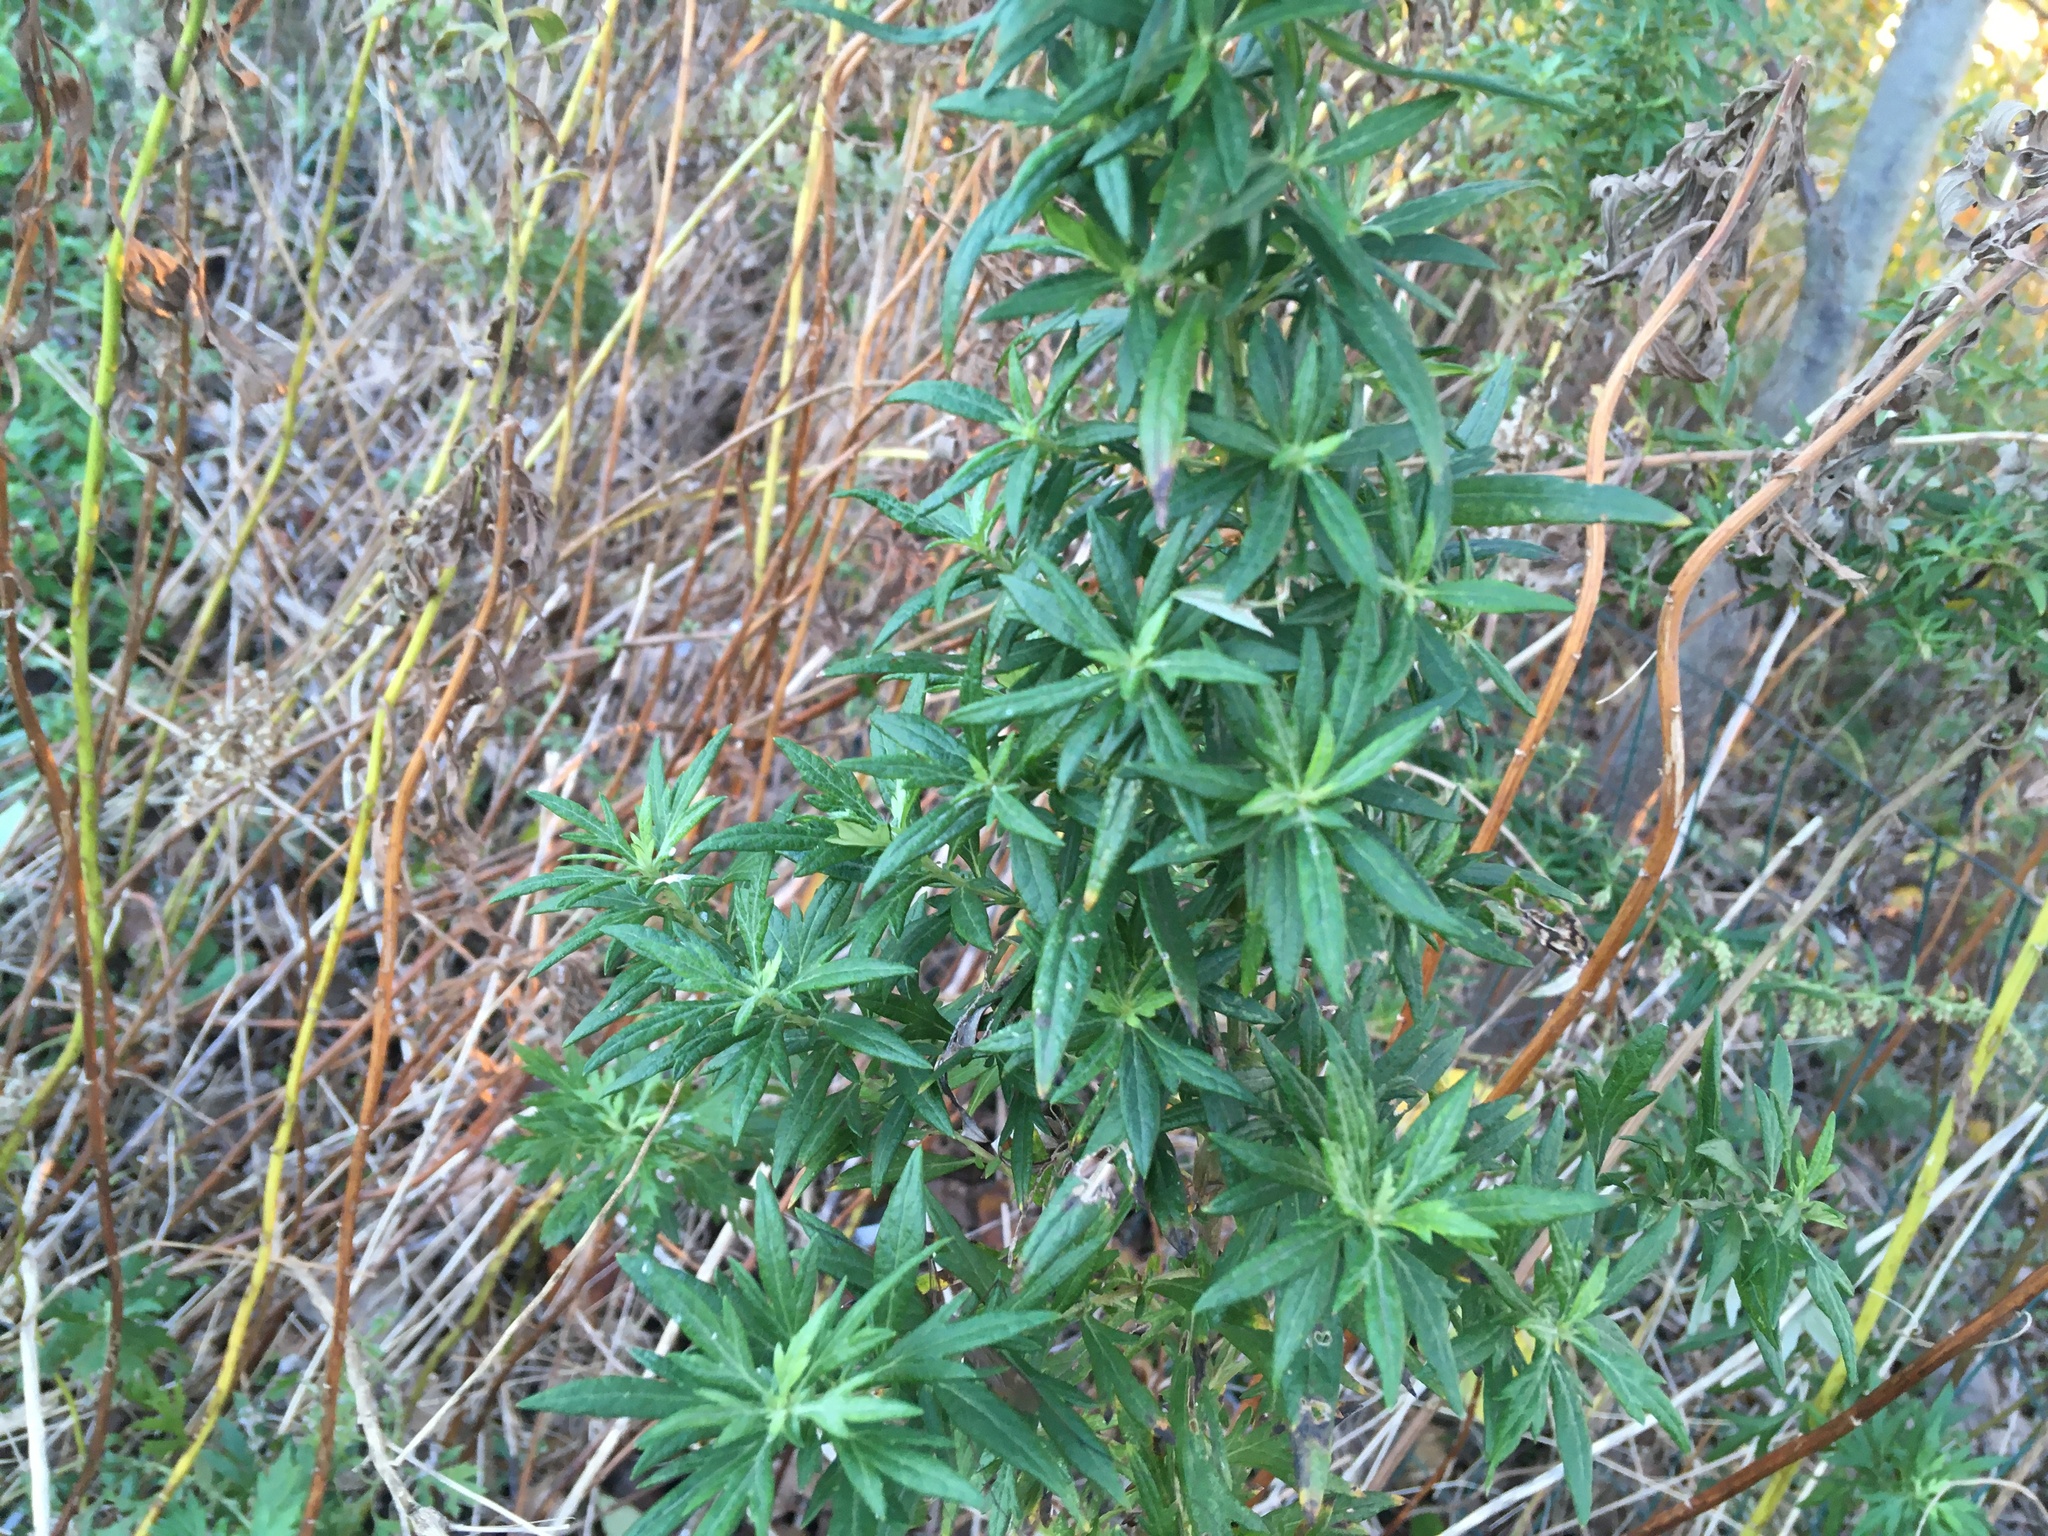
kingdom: Plantae
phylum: Tracheophyta
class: Magnoliopsida
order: Asterales
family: Asteraceae
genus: Artemisia
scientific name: Artemisia vulgaris
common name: Mugwort
